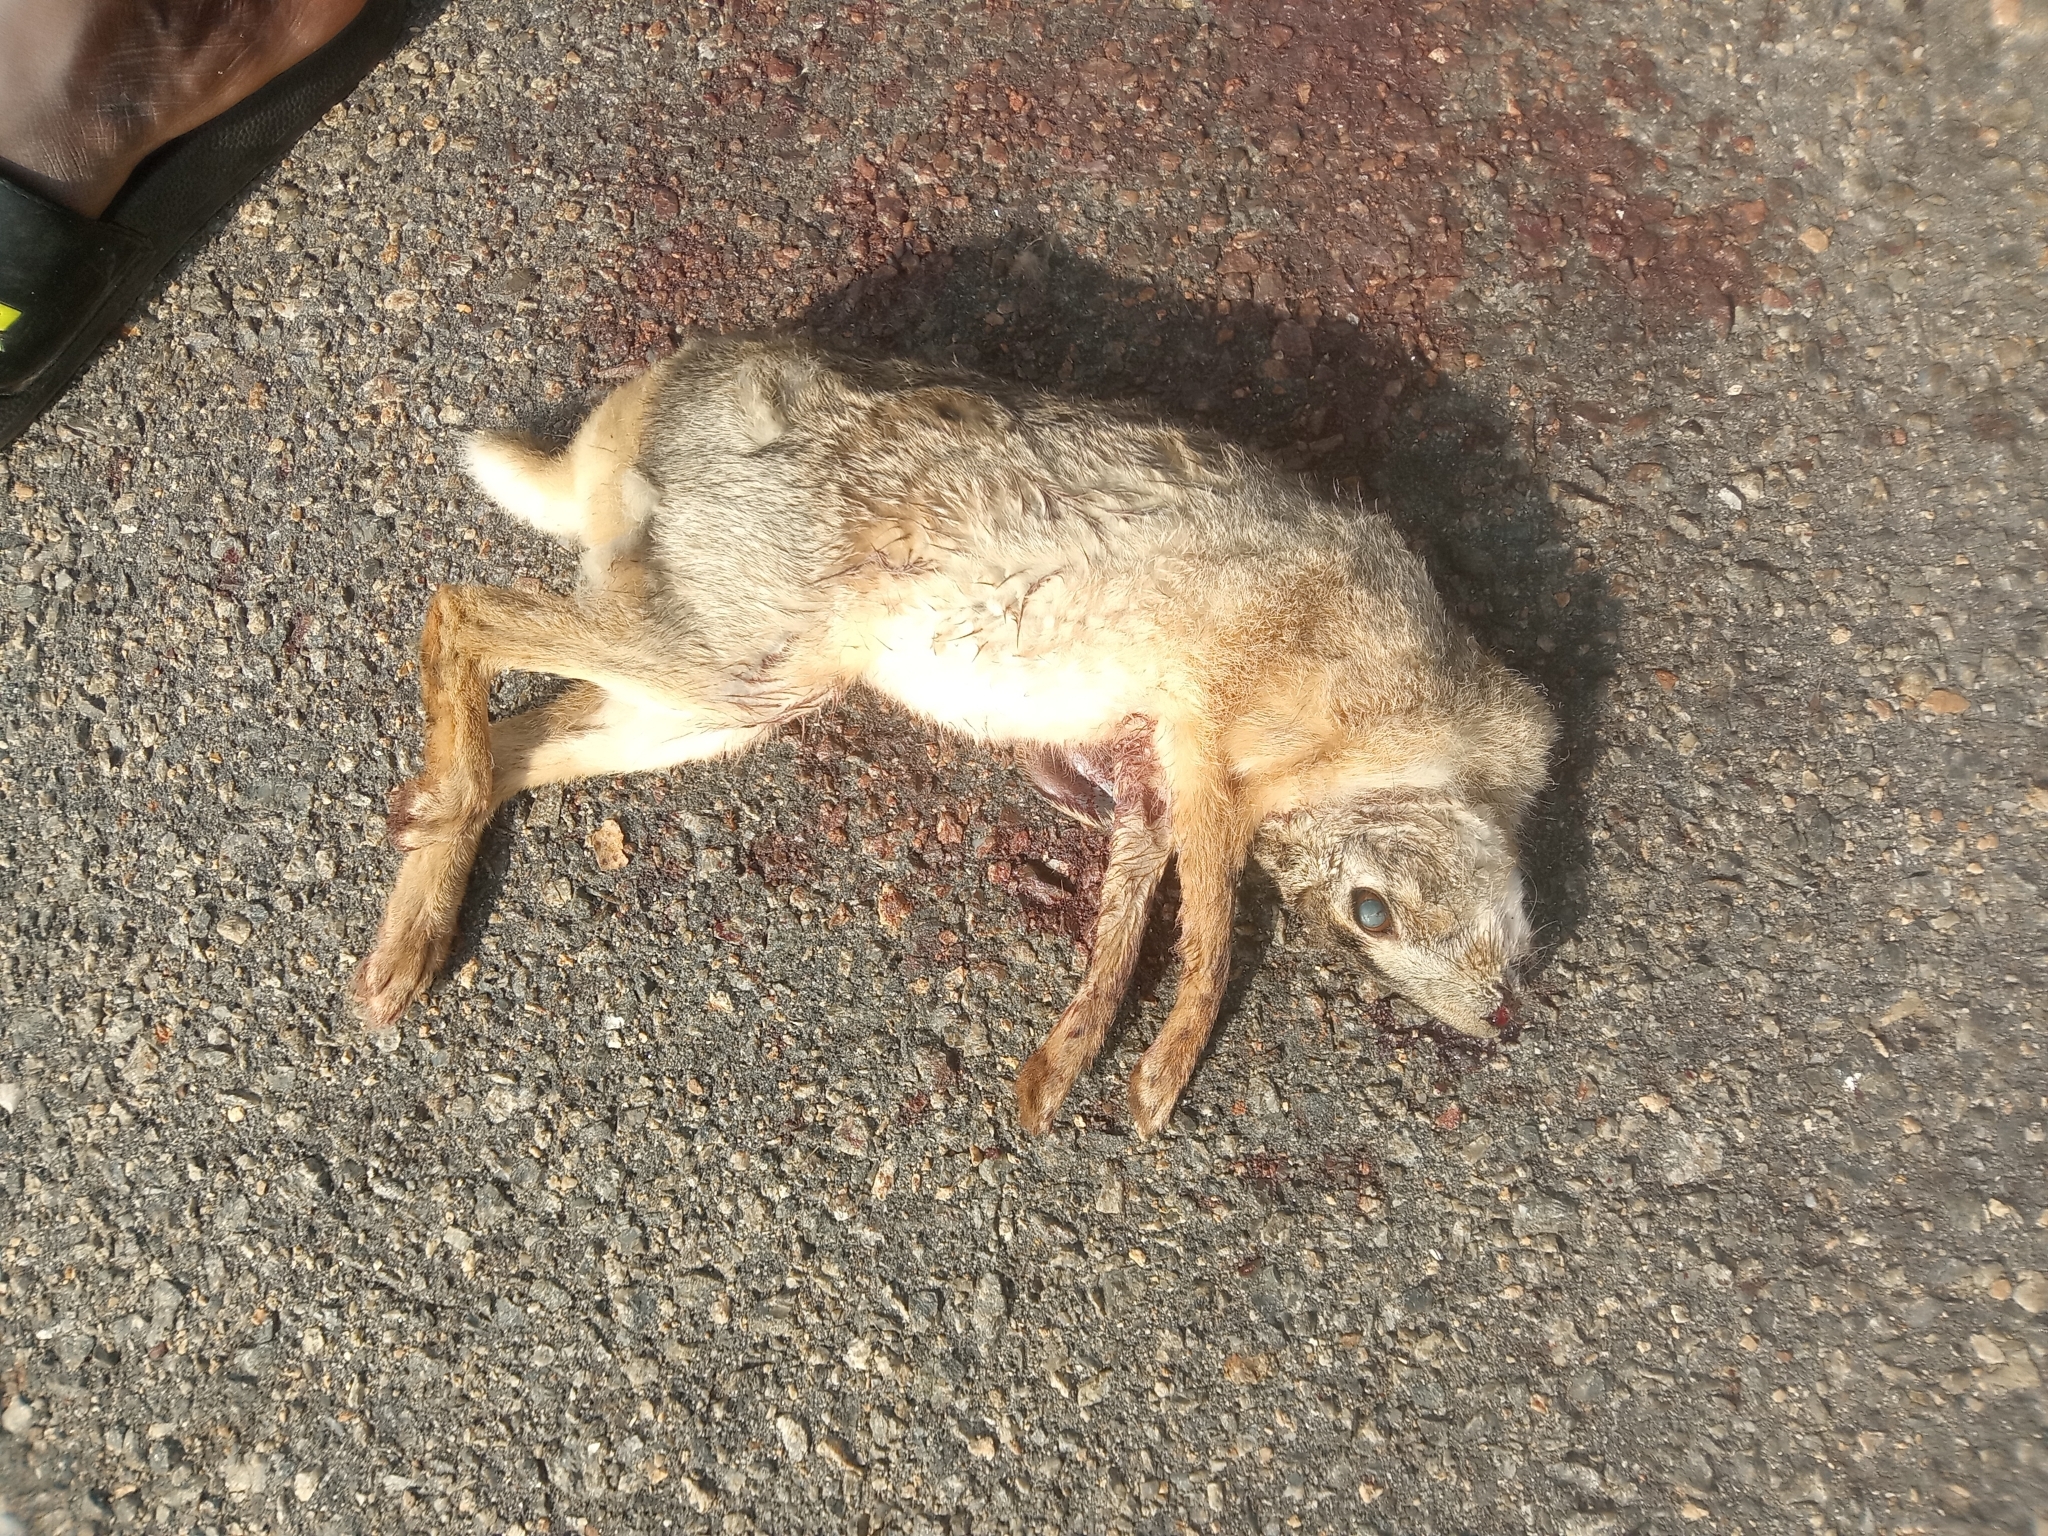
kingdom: Animalia
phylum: Chordata
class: Mammalia
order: Lagomorpha
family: Leporidae
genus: Lepus
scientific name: Lepus victoriae
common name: African savanna hare
